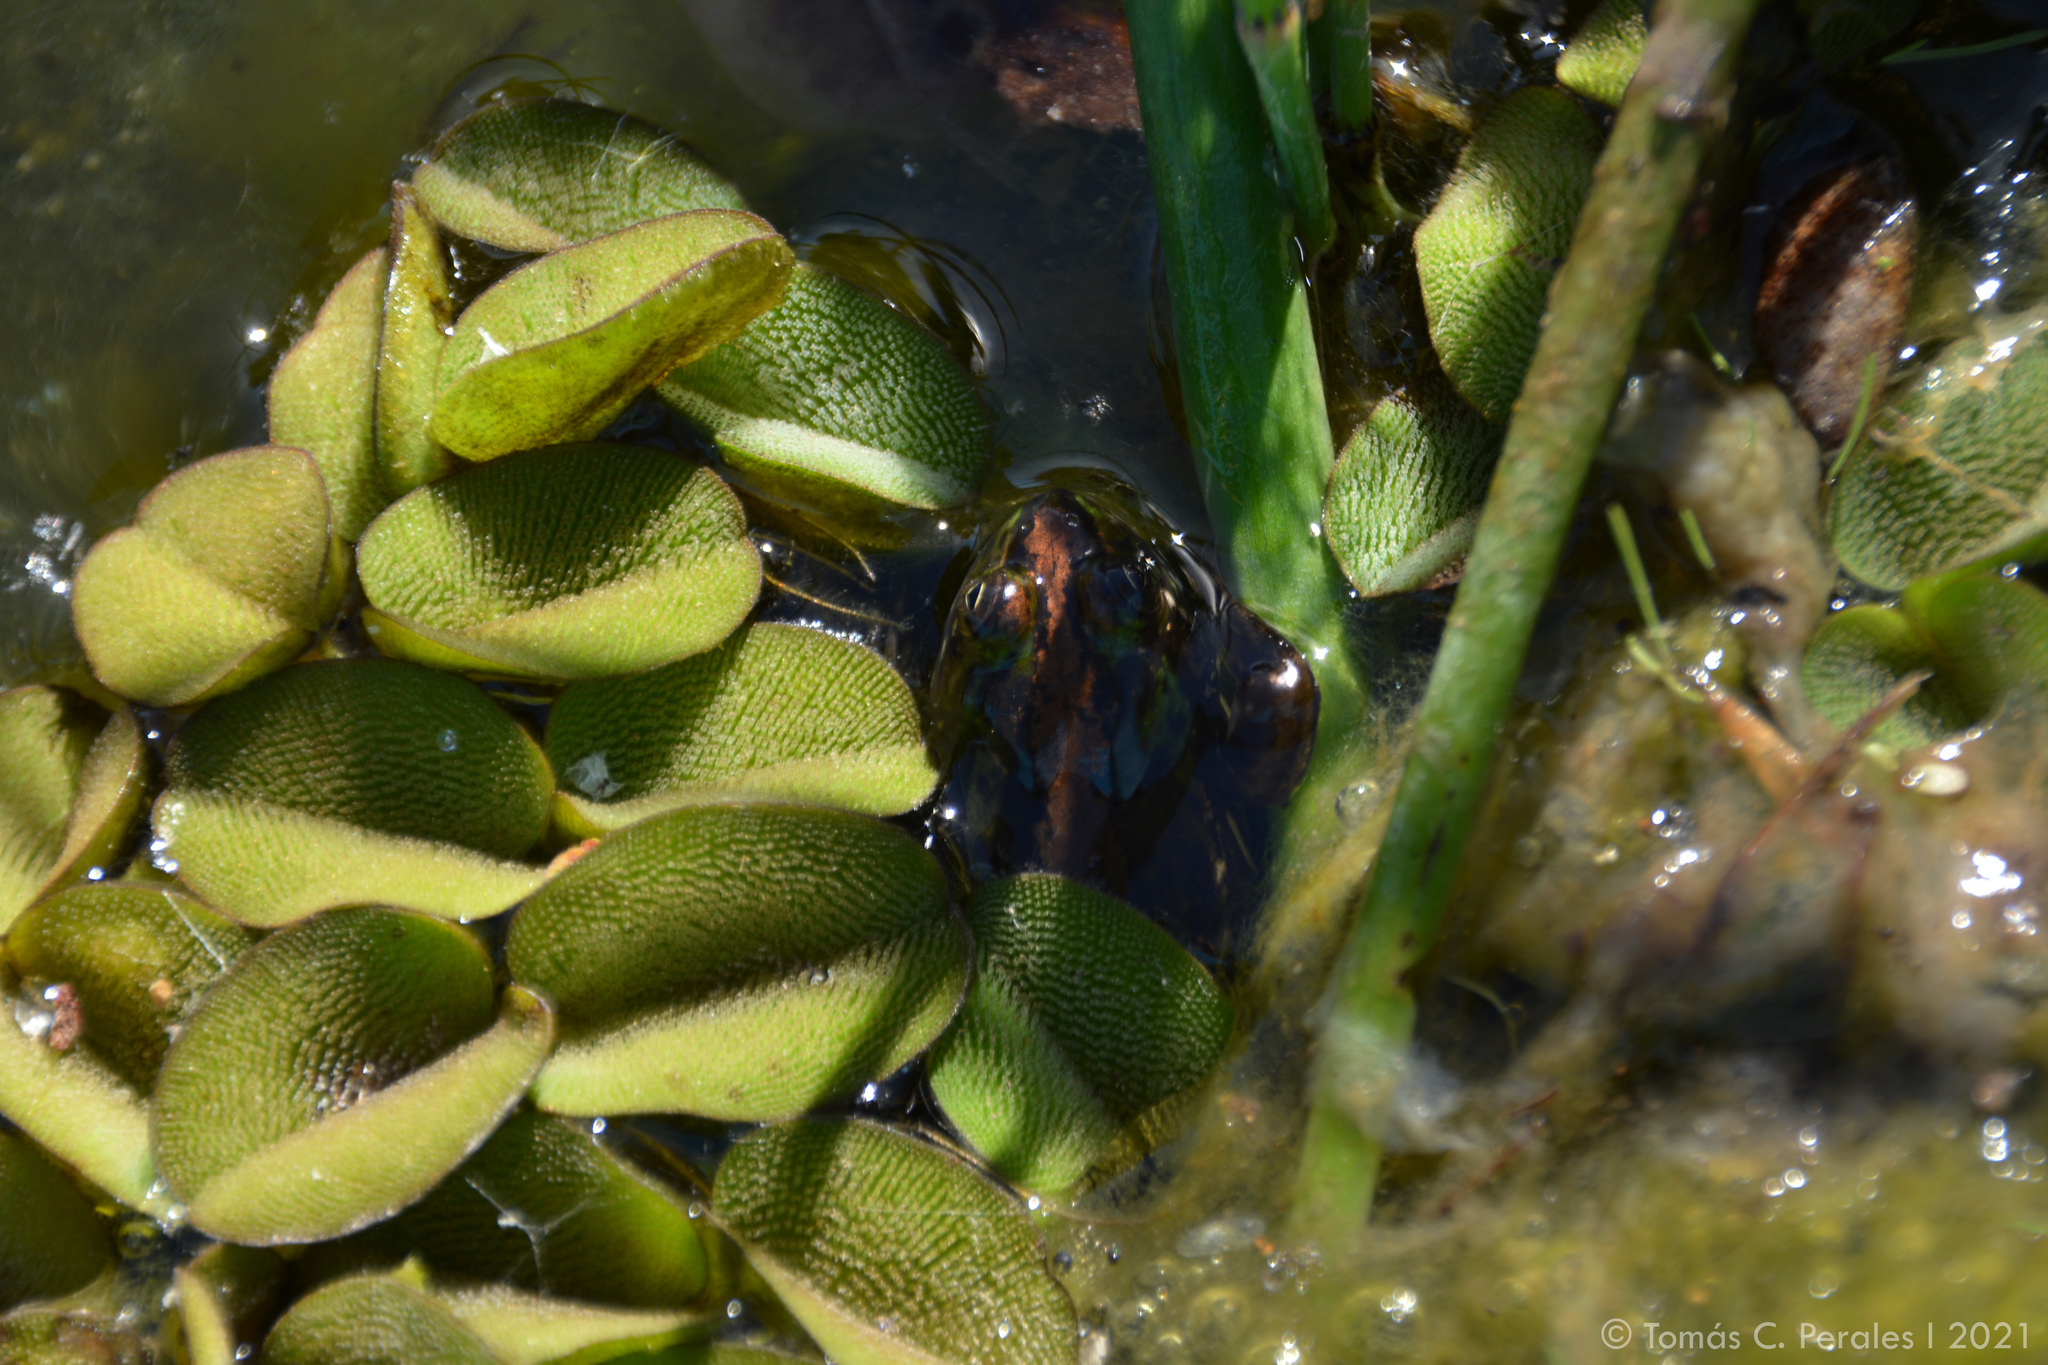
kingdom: Animalia
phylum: Chordata
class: Amphibia
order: Anura
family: Hylidae
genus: Pseudis
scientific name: Pseudis minuta
